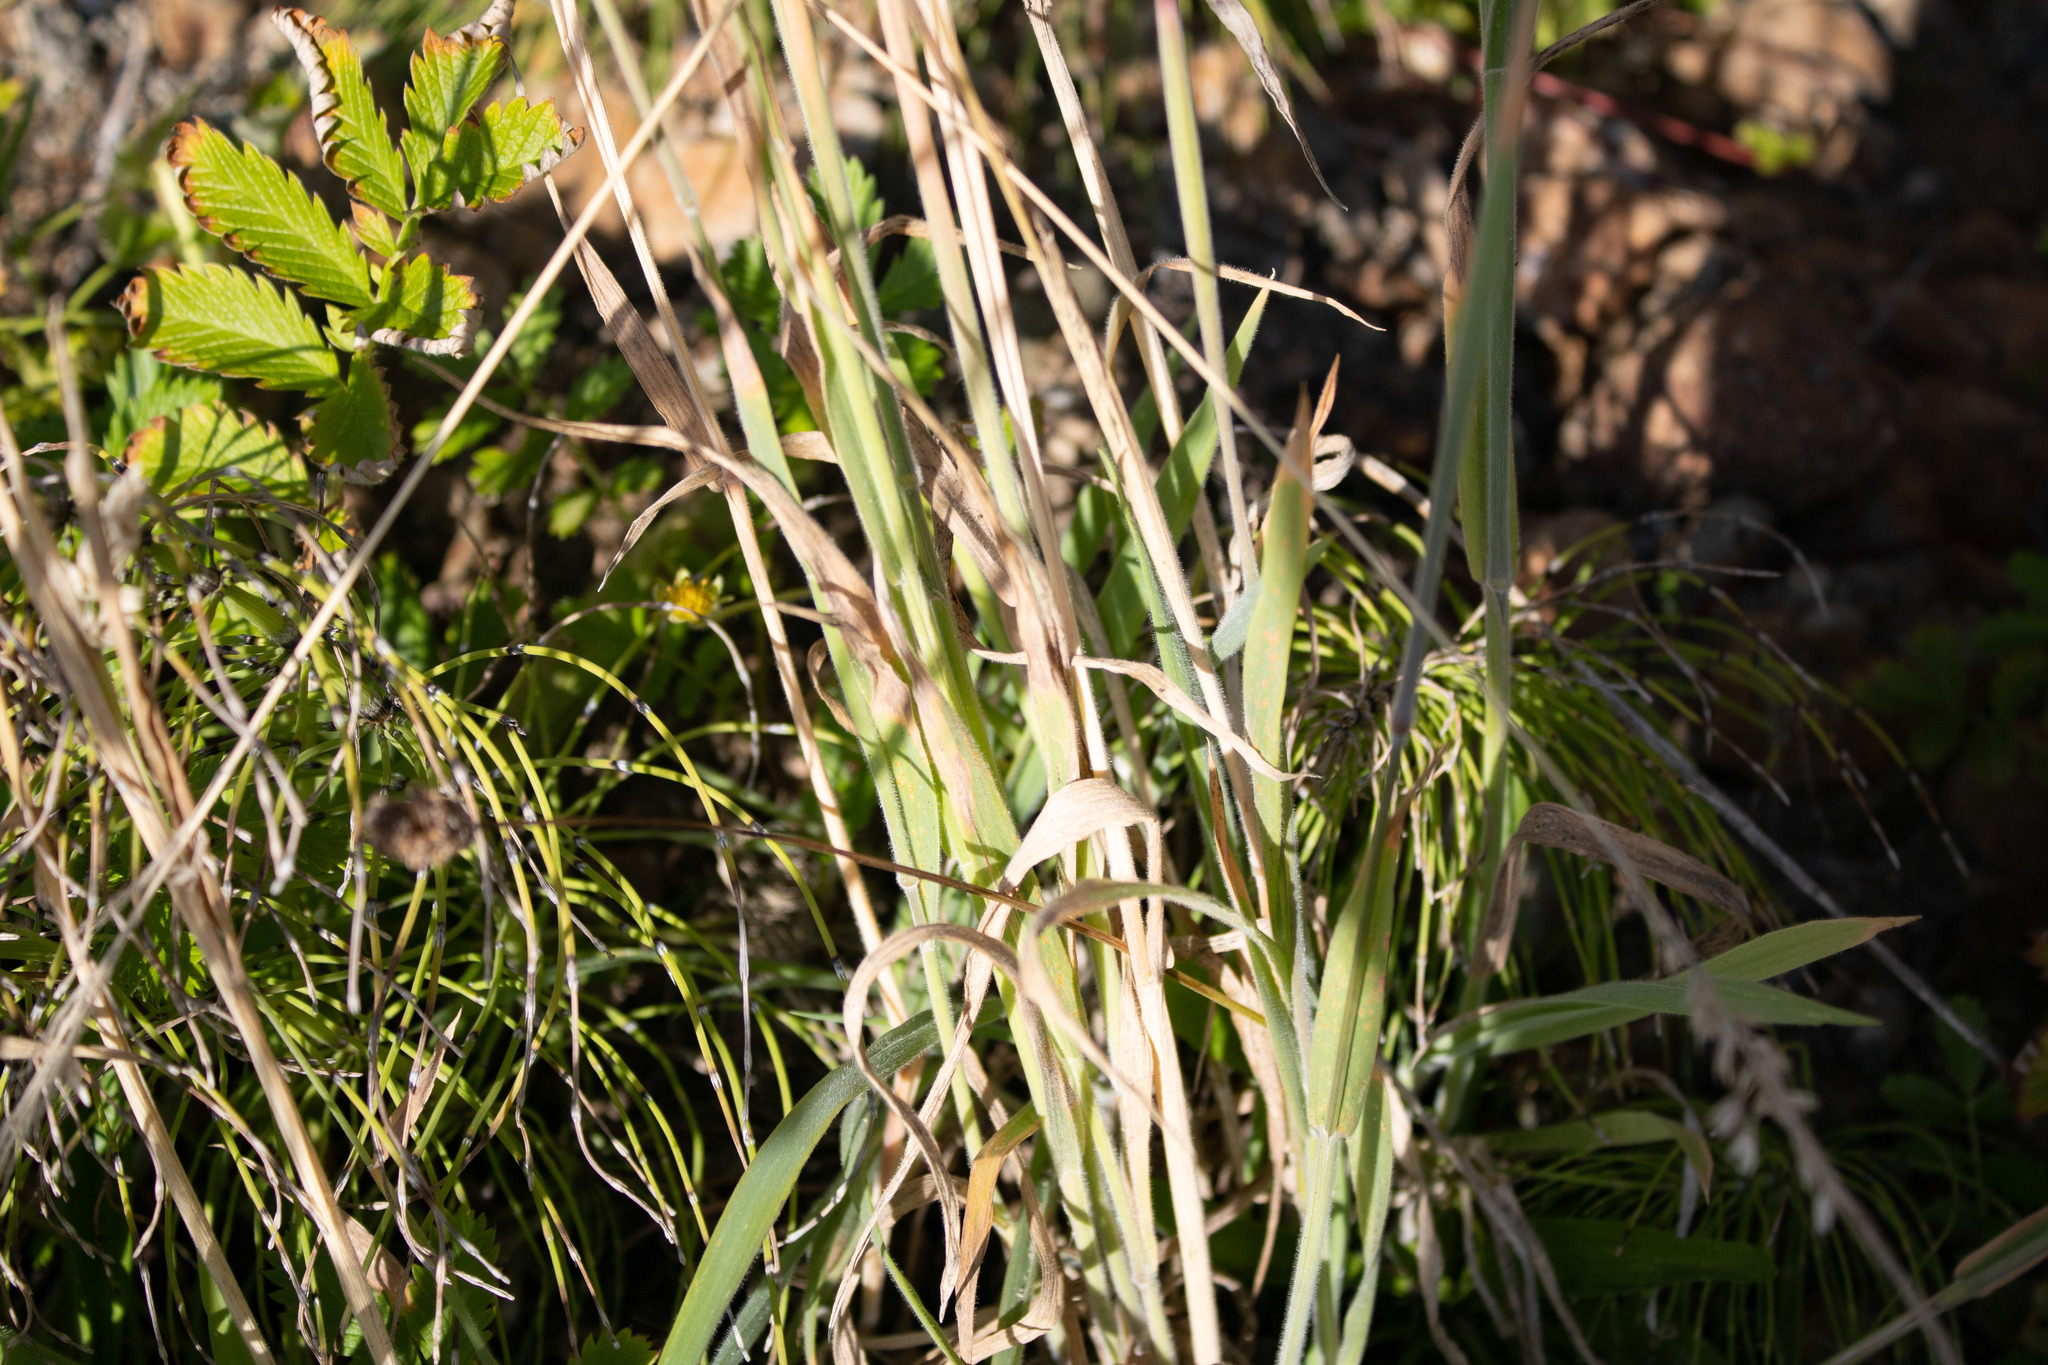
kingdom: Plantae
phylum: Tracheophyta
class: Liliopsida
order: Poales
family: Poaceae
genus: Holcus
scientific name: Holcus lanatus
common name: Yorkshire-fog
